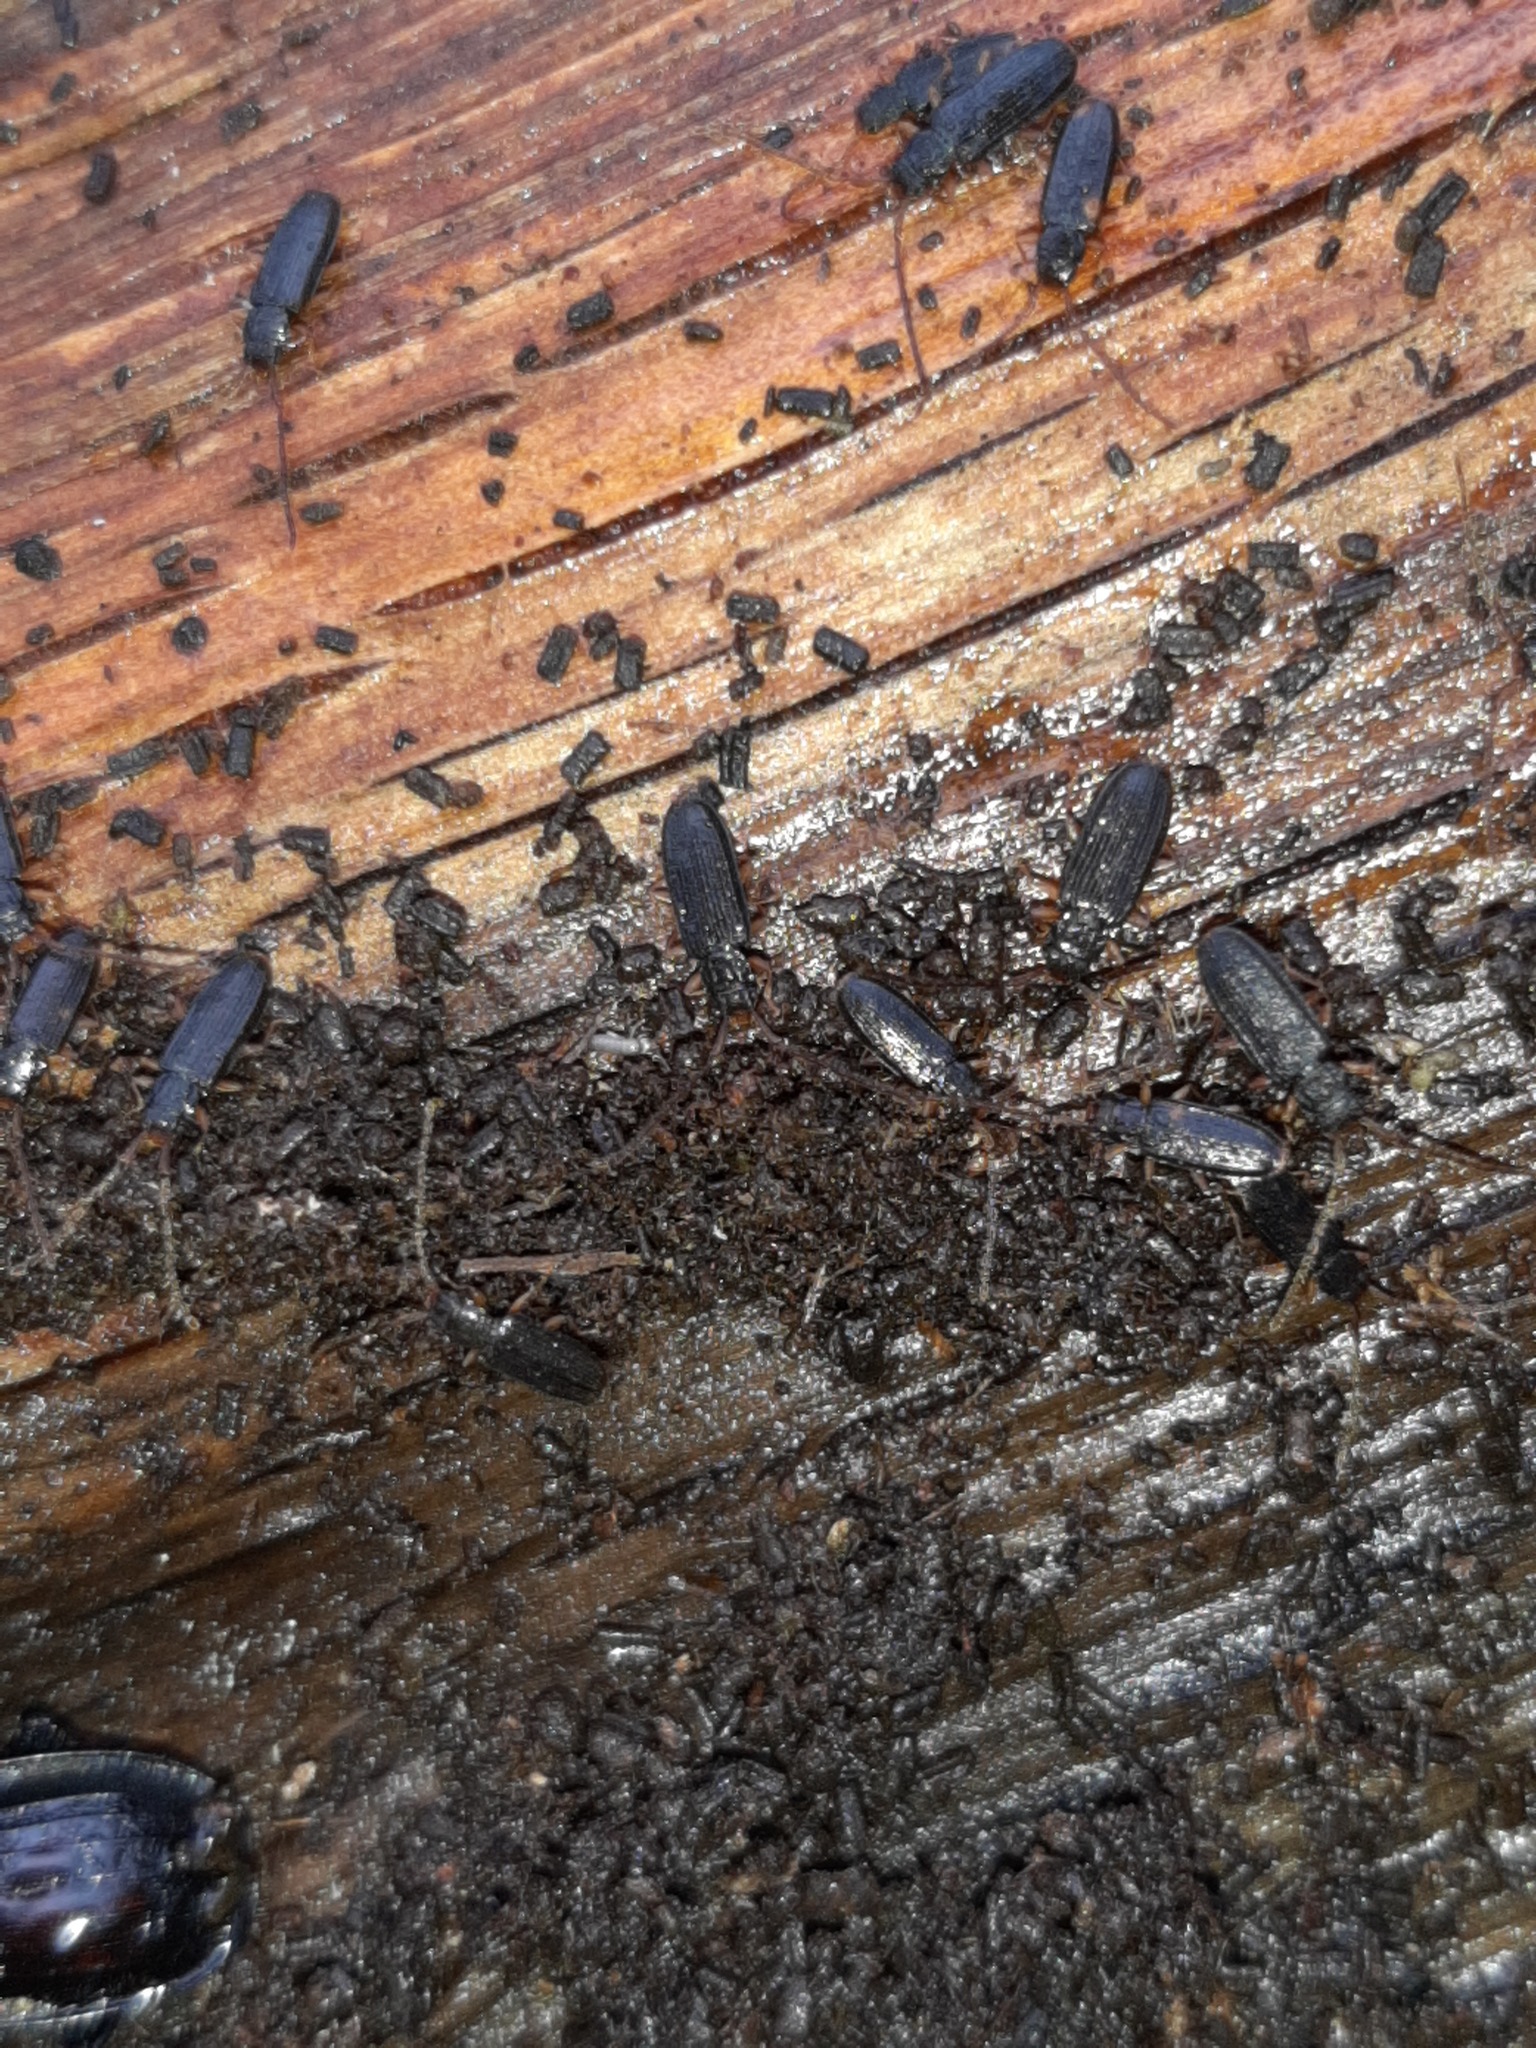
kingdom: Animalia
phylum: Arthropoda
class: Insecta
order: Coleoptera
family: Silvanidae
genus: Uleiota
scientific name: Uleiota planatus
